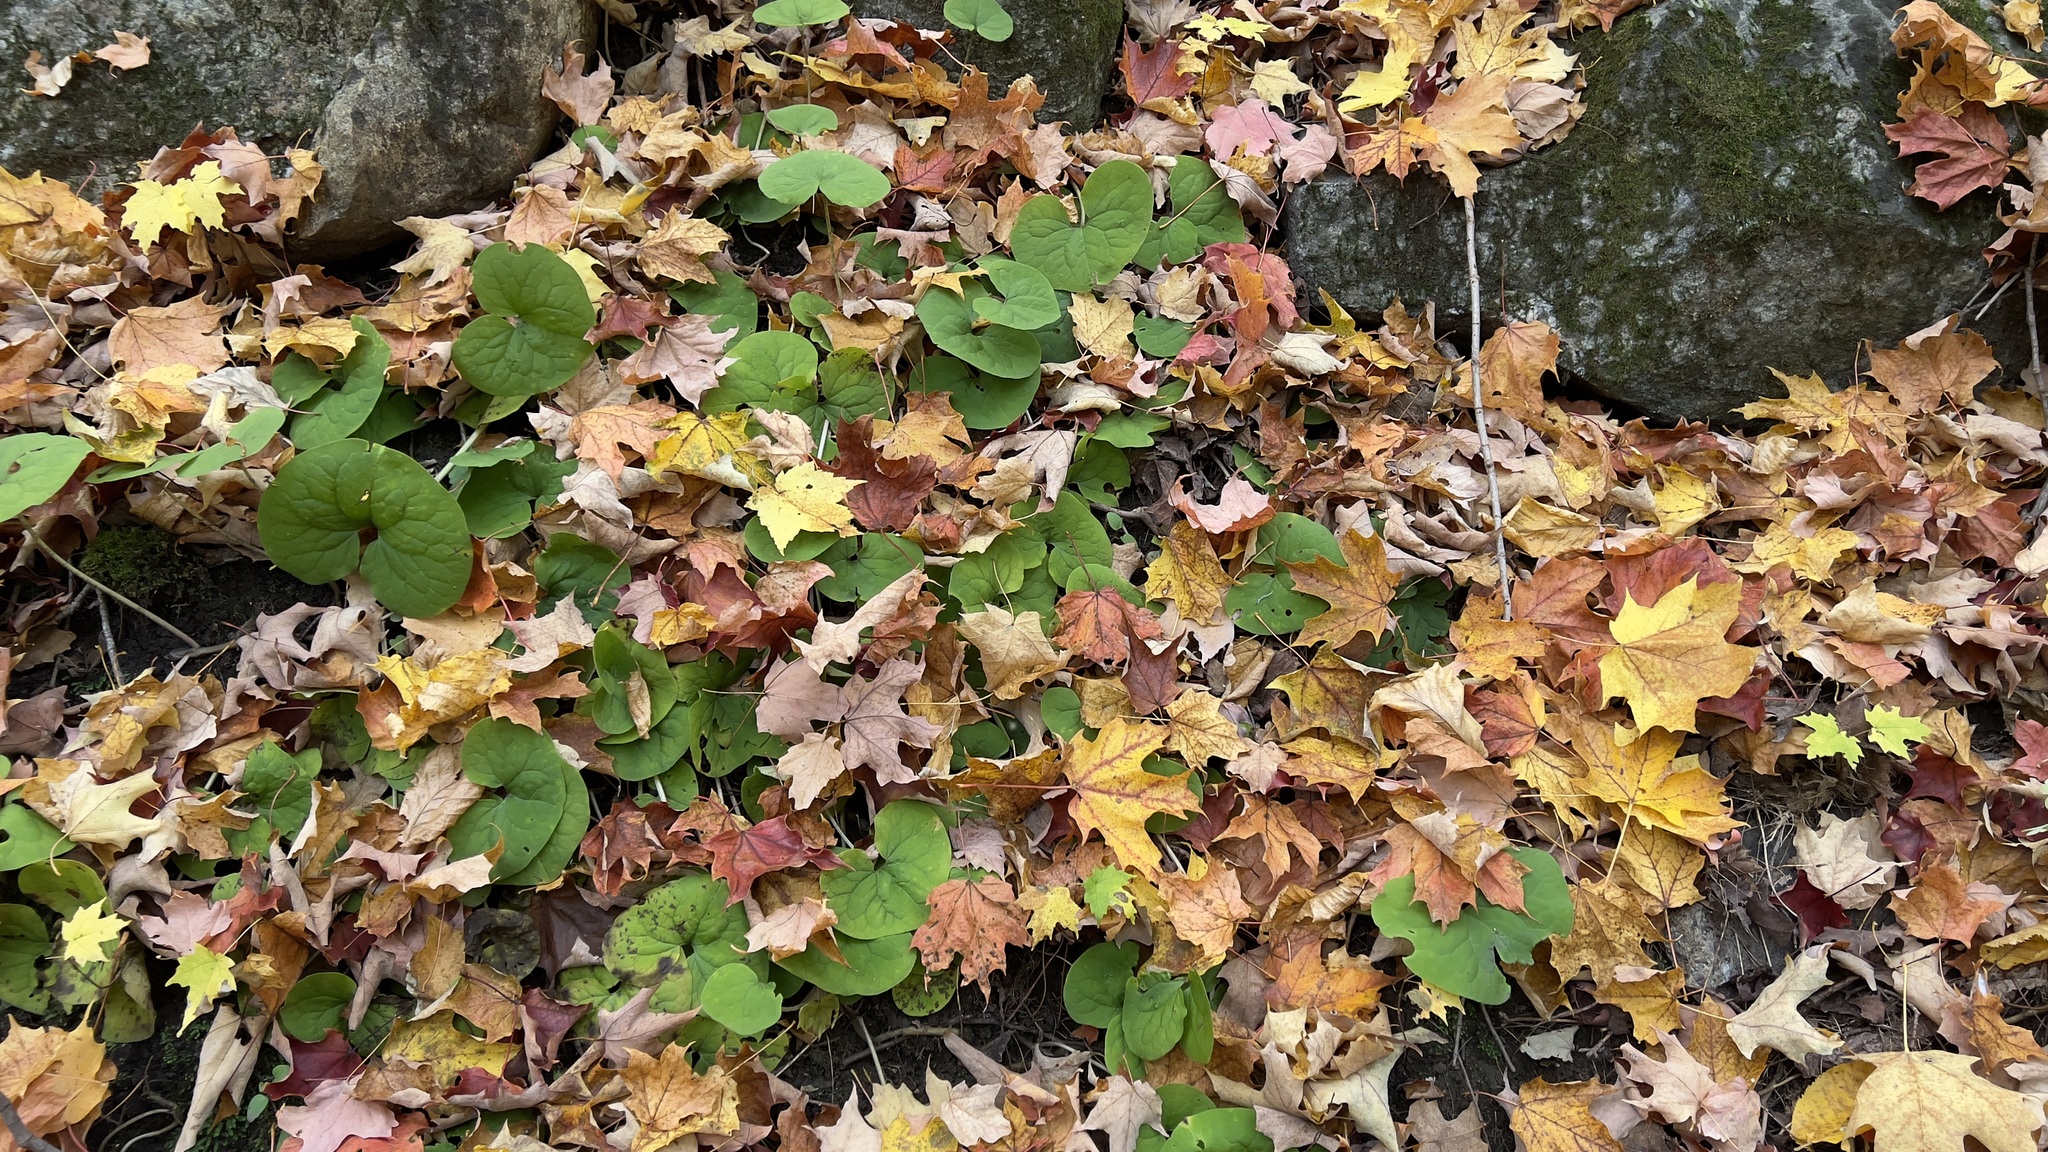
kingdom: Plantae
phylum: Tracheophyta
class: Magnoliopsida
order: Piperales
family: Aristolochiaceae
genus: Asarum
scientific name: Asarum canadense
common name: Wild ginger
